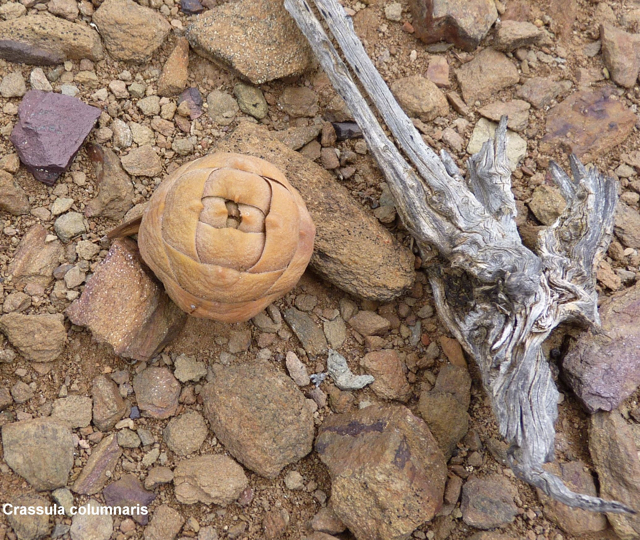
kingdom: Plantae
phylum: Tracheophyta
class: Magnoliopsida
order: Saxifragales
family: Crassulaceae
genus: Crassula
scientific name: Crassula columnaris
